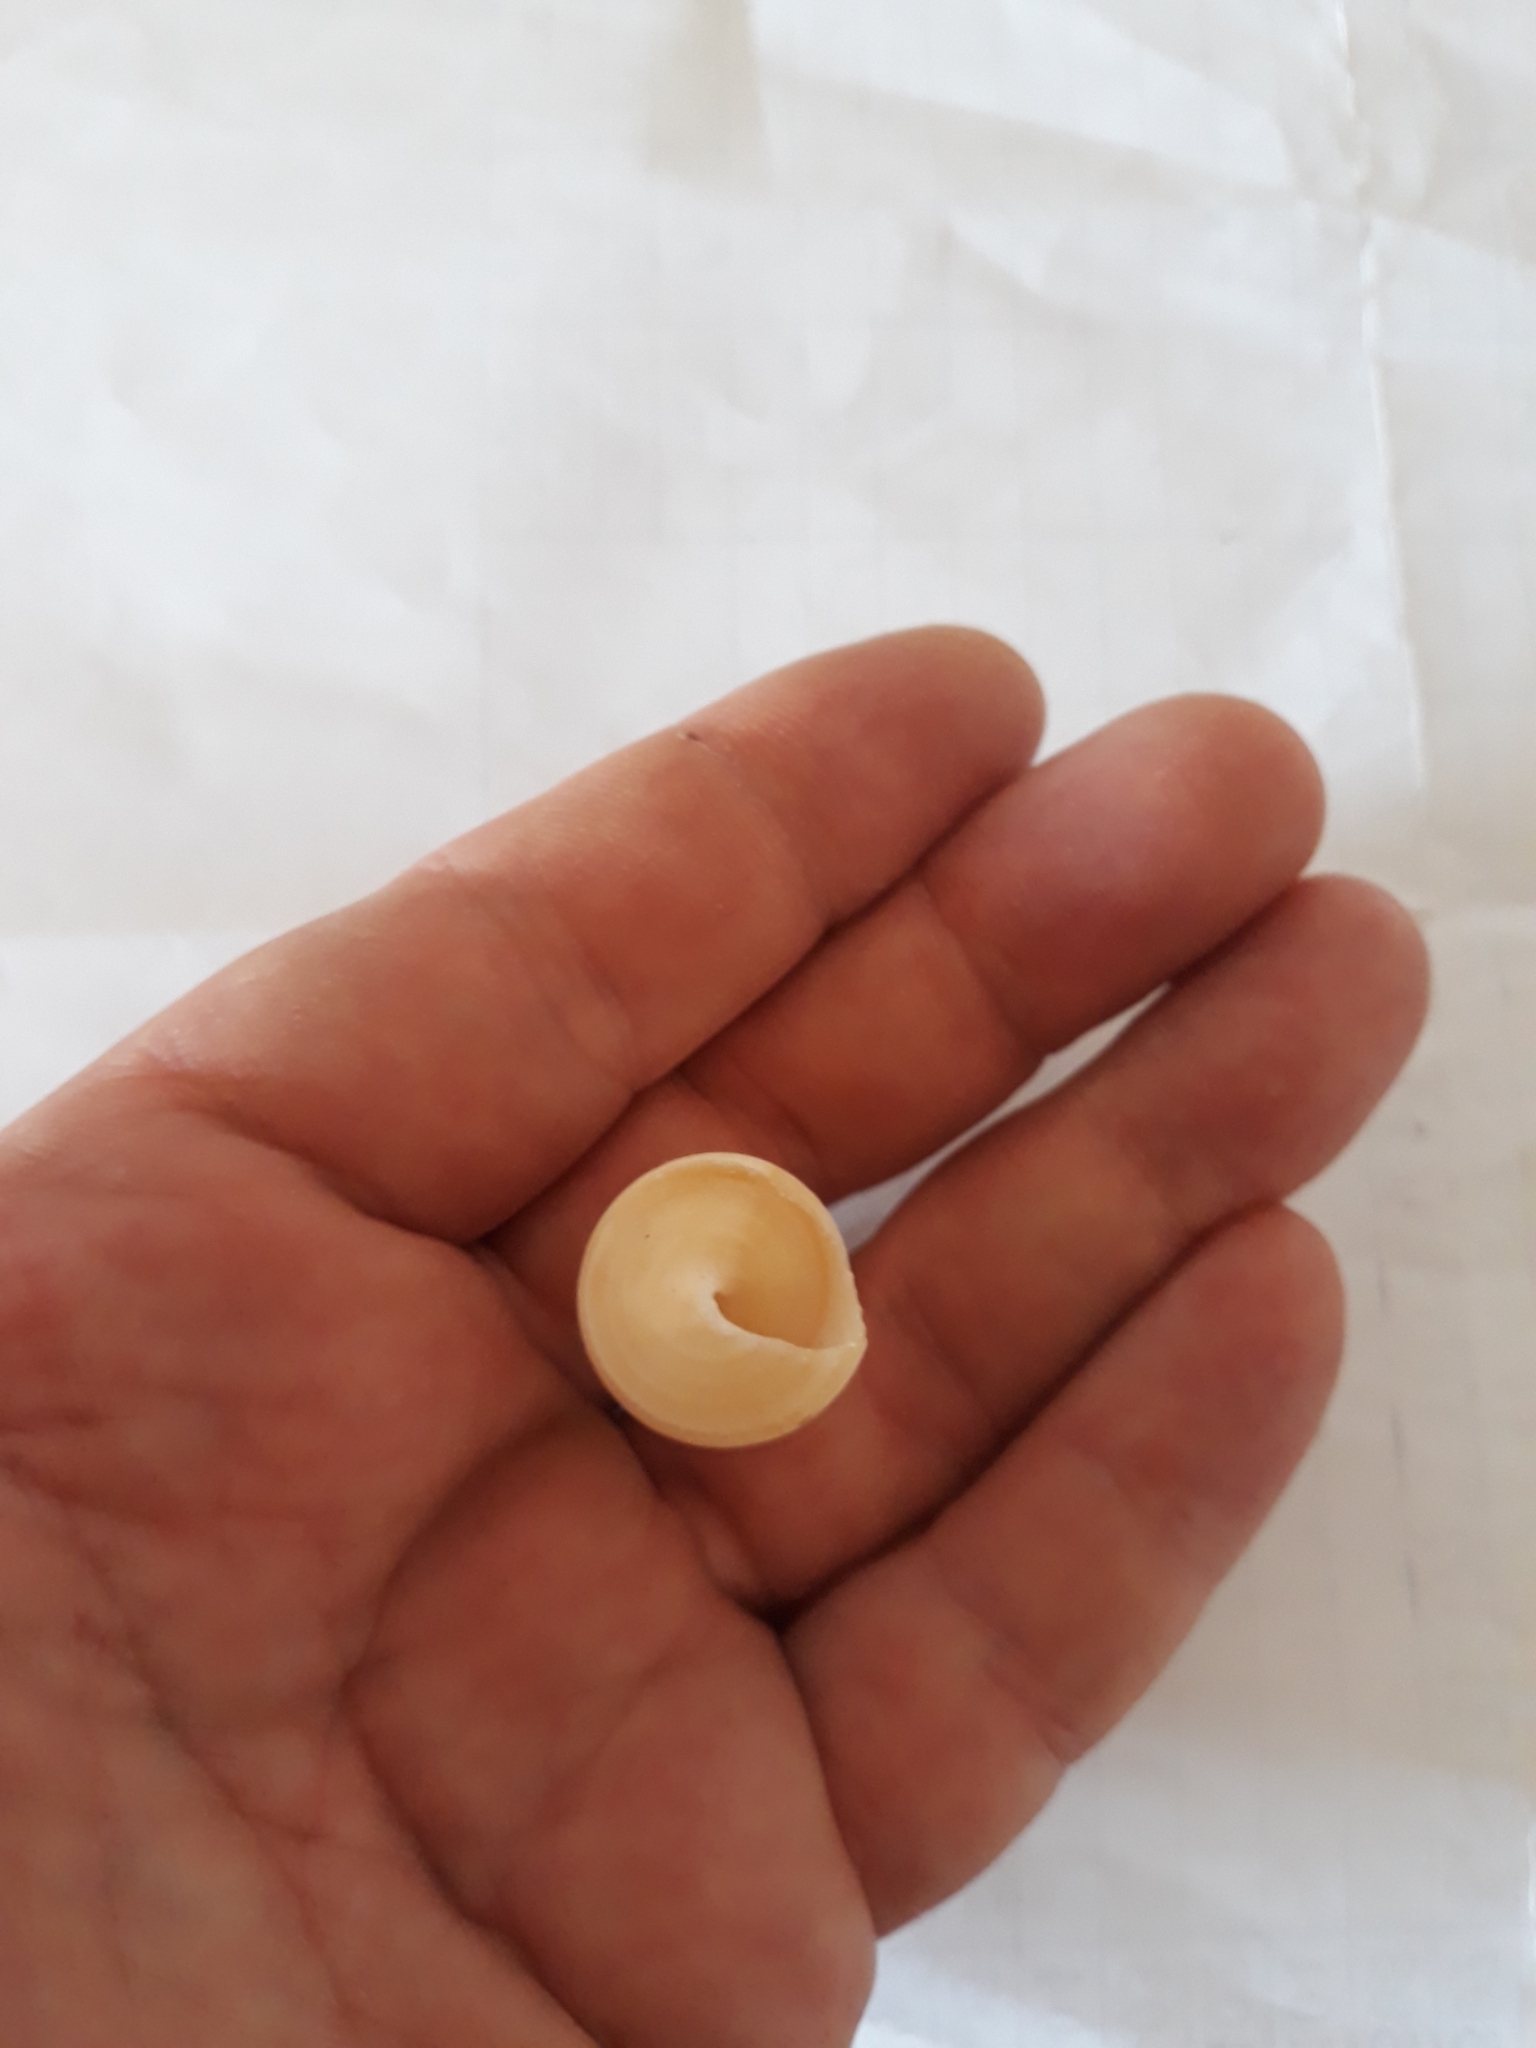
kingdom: Animalia
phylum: Mollusca
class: Gastropoda
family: Turritellidae
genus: Turritella
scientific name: Turritella terebra
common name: Auger screw shell
